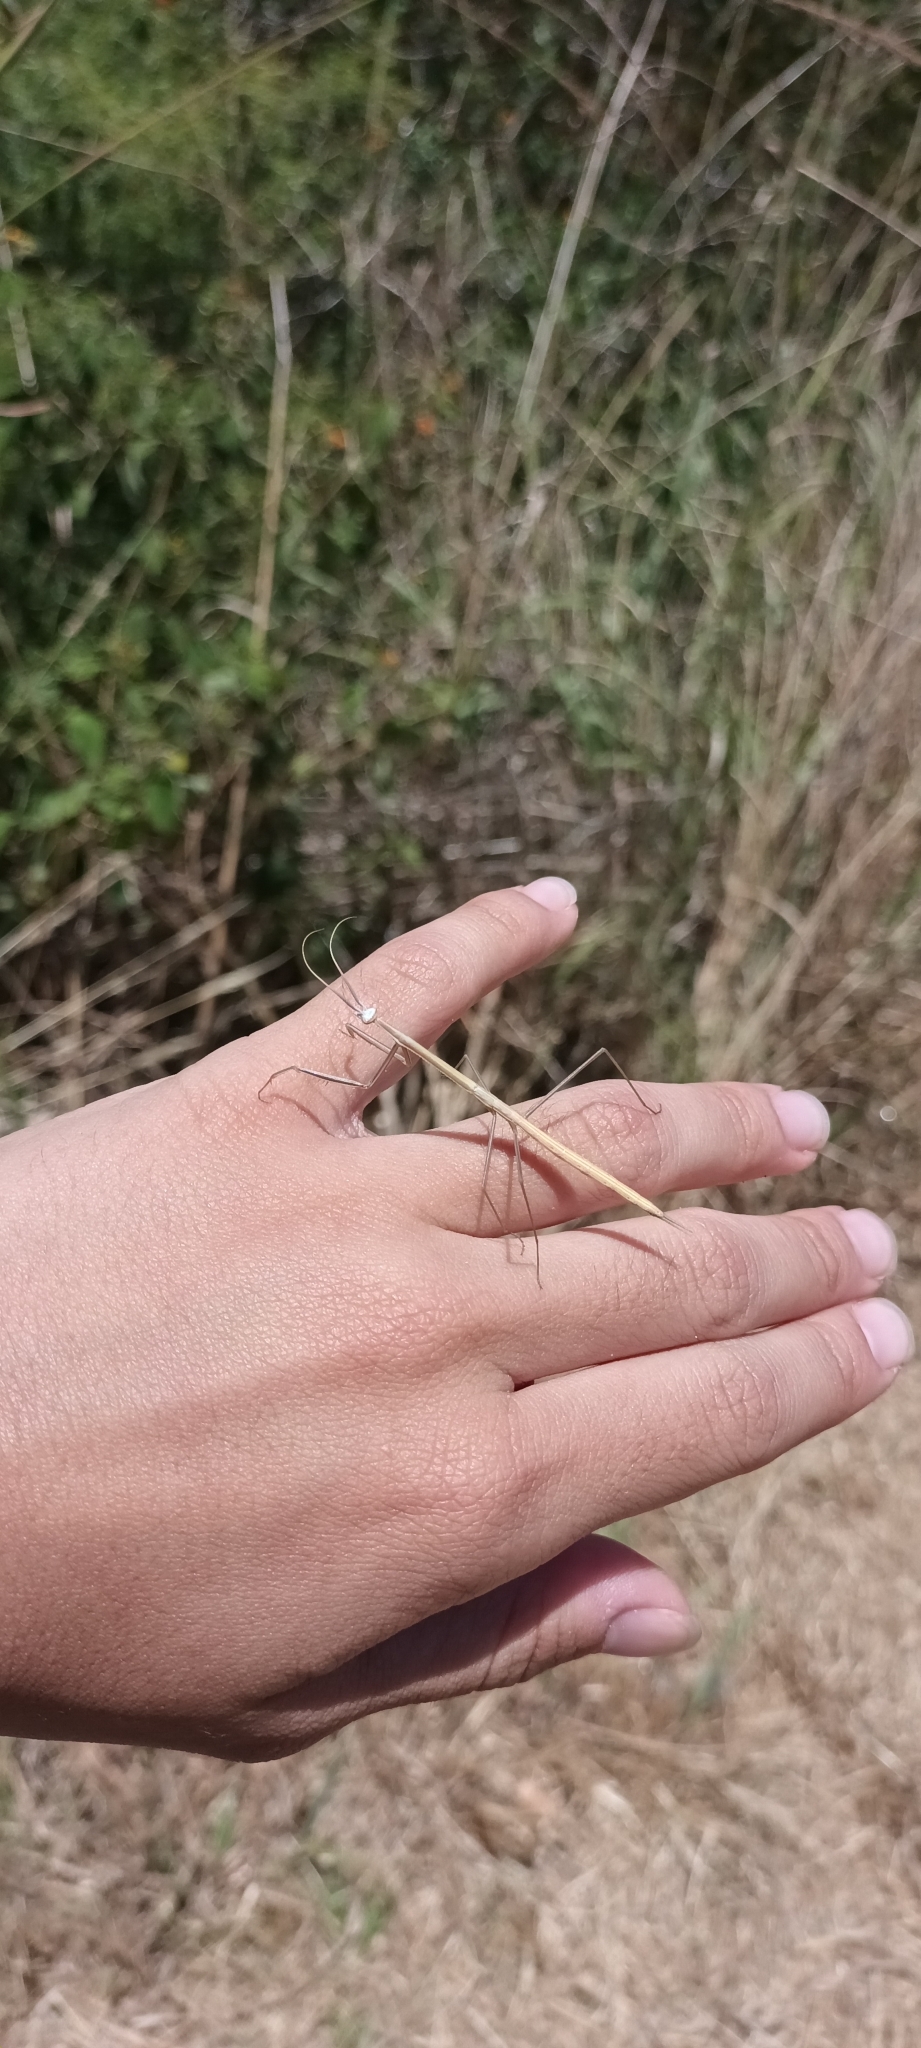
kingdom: Animalia
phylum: Arthropoda
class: Insecta
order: Mantodea
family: Coptopterygidae
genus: Brunneria
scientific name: Brunneria subaptera
